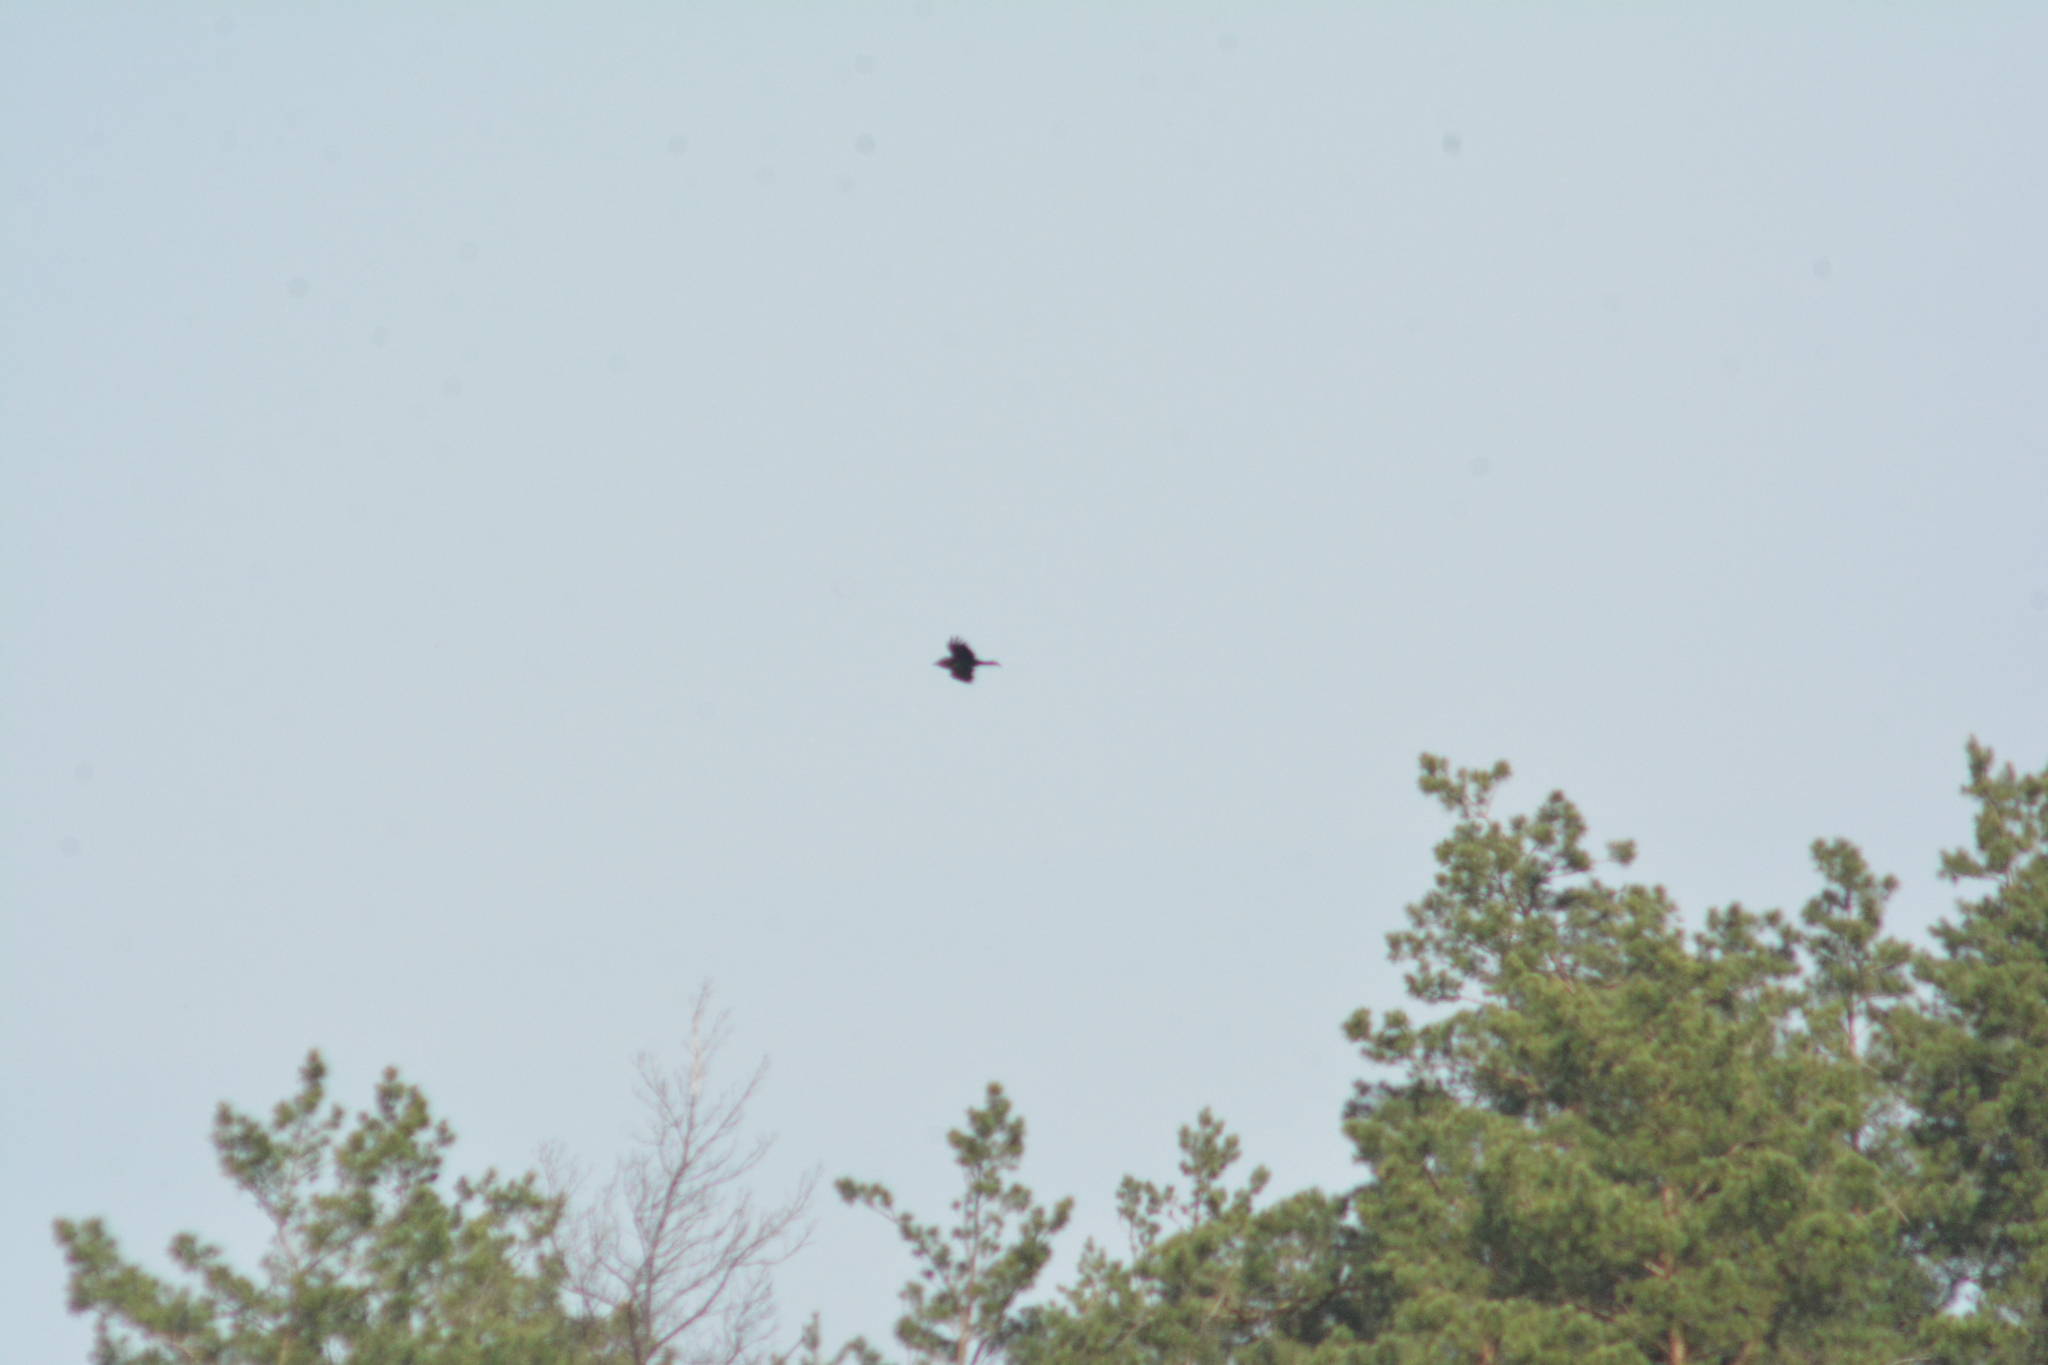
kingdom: Animalia
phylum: Chordata
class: Aves
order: Passeriformes
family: Corvidae
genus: Corvus
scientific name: Corvus corax
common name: Common raven
